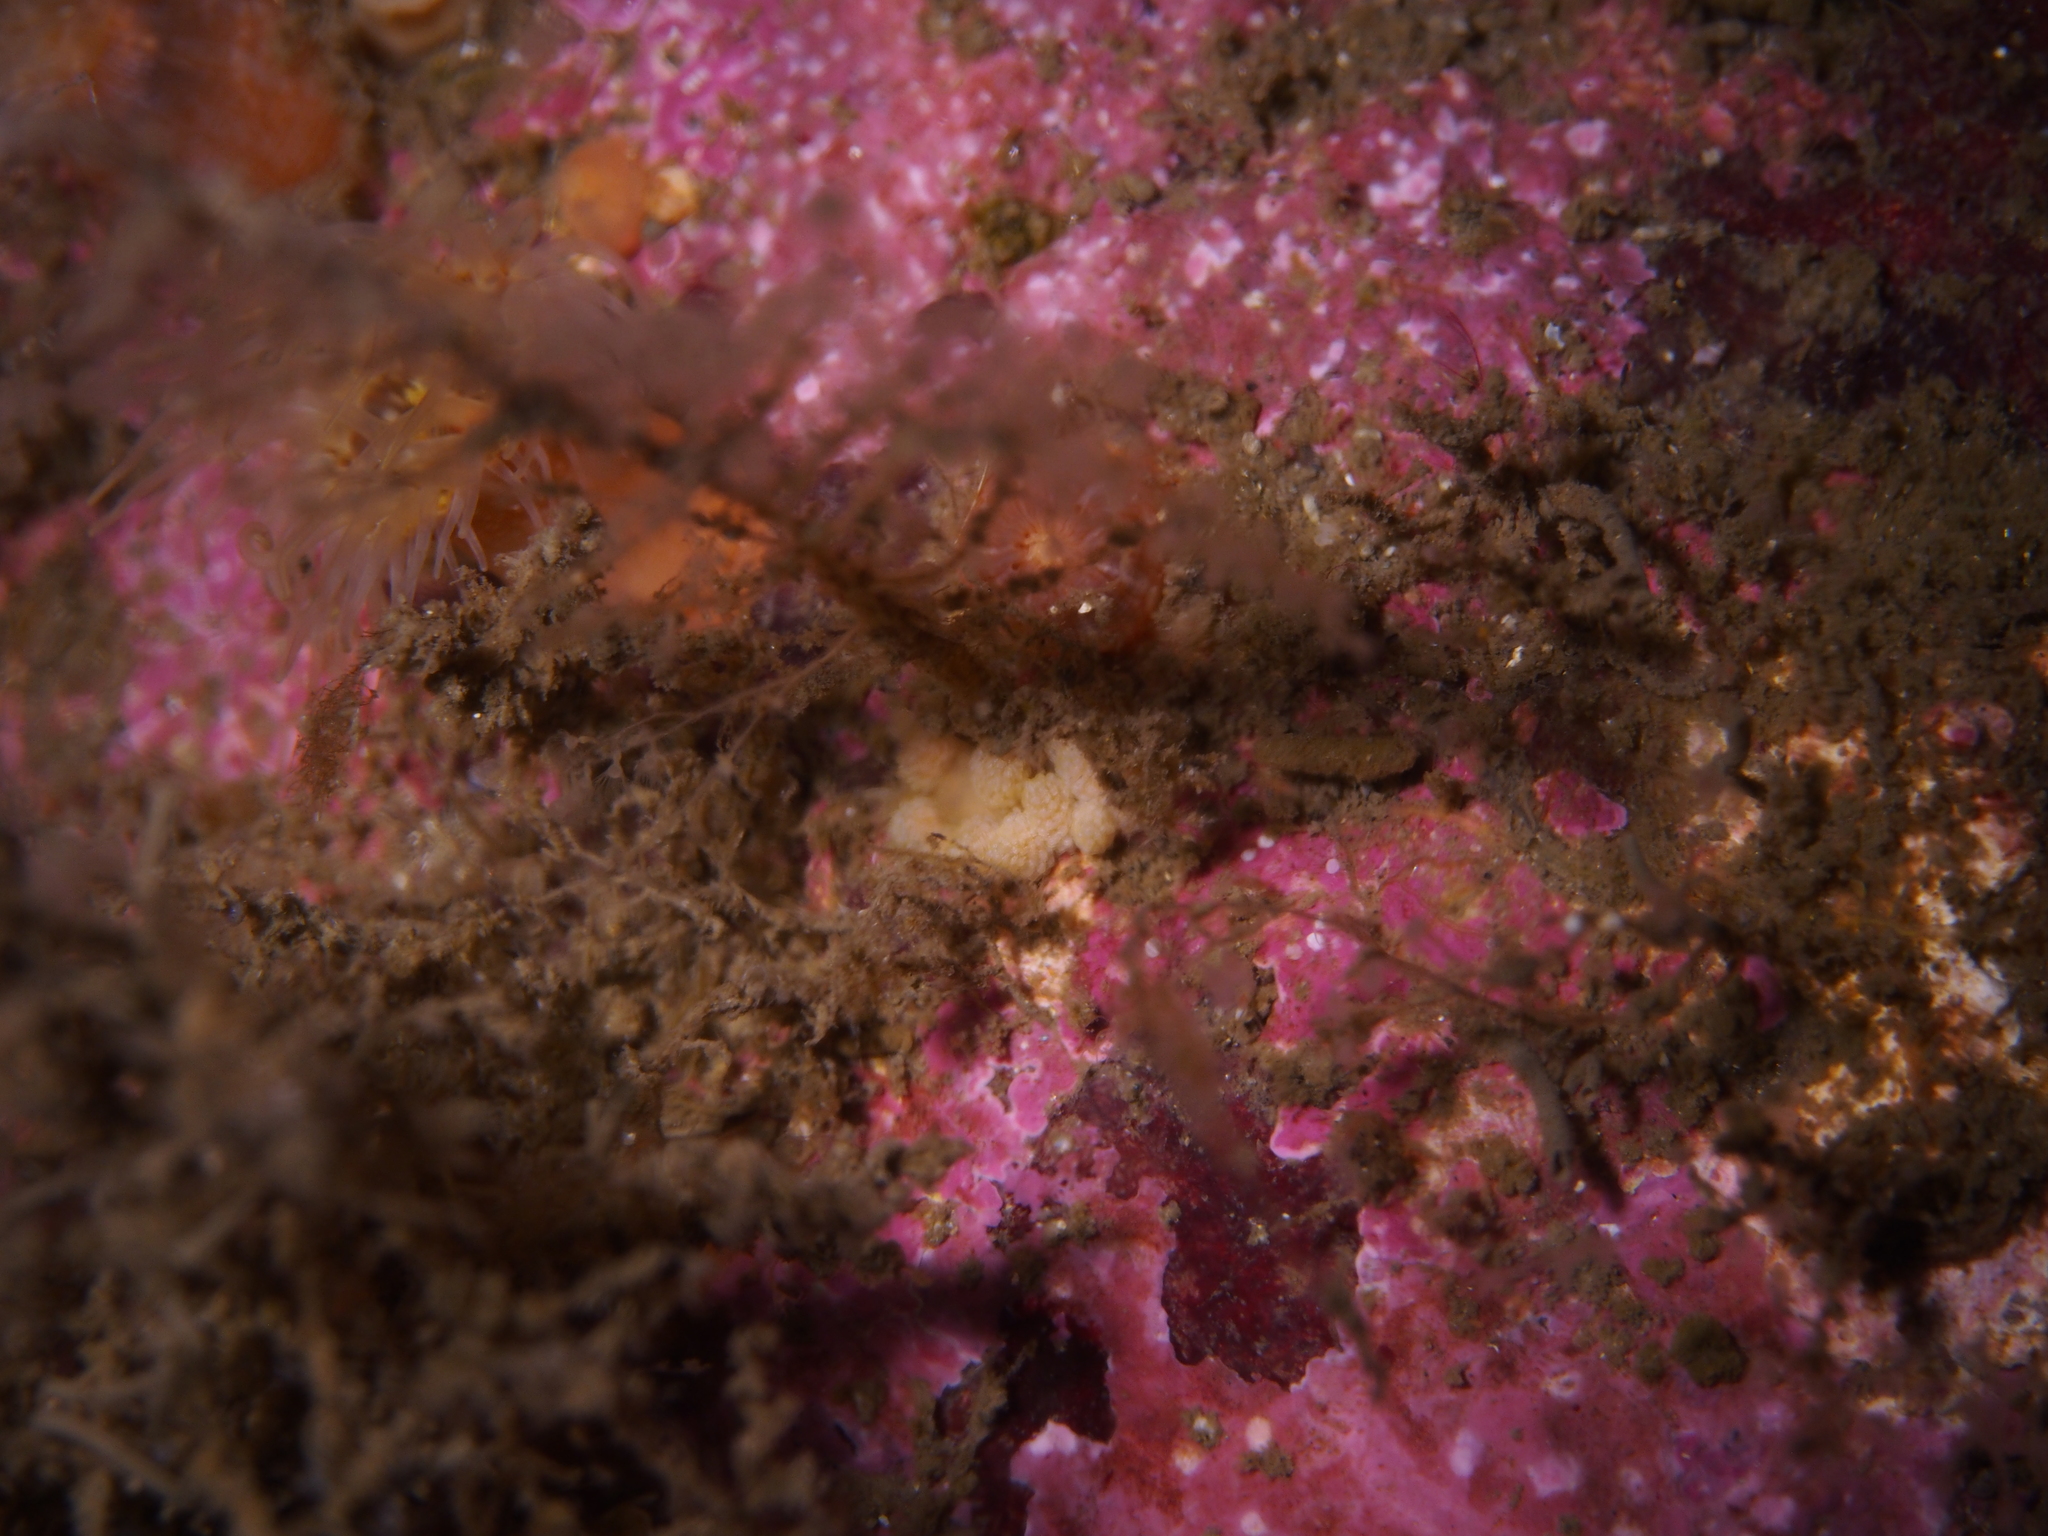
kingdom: Animalia
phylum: Mollusca
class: Gastropoda
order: Nudibranchia
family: Dotidae
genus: Doto
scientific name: Doto fragilis
